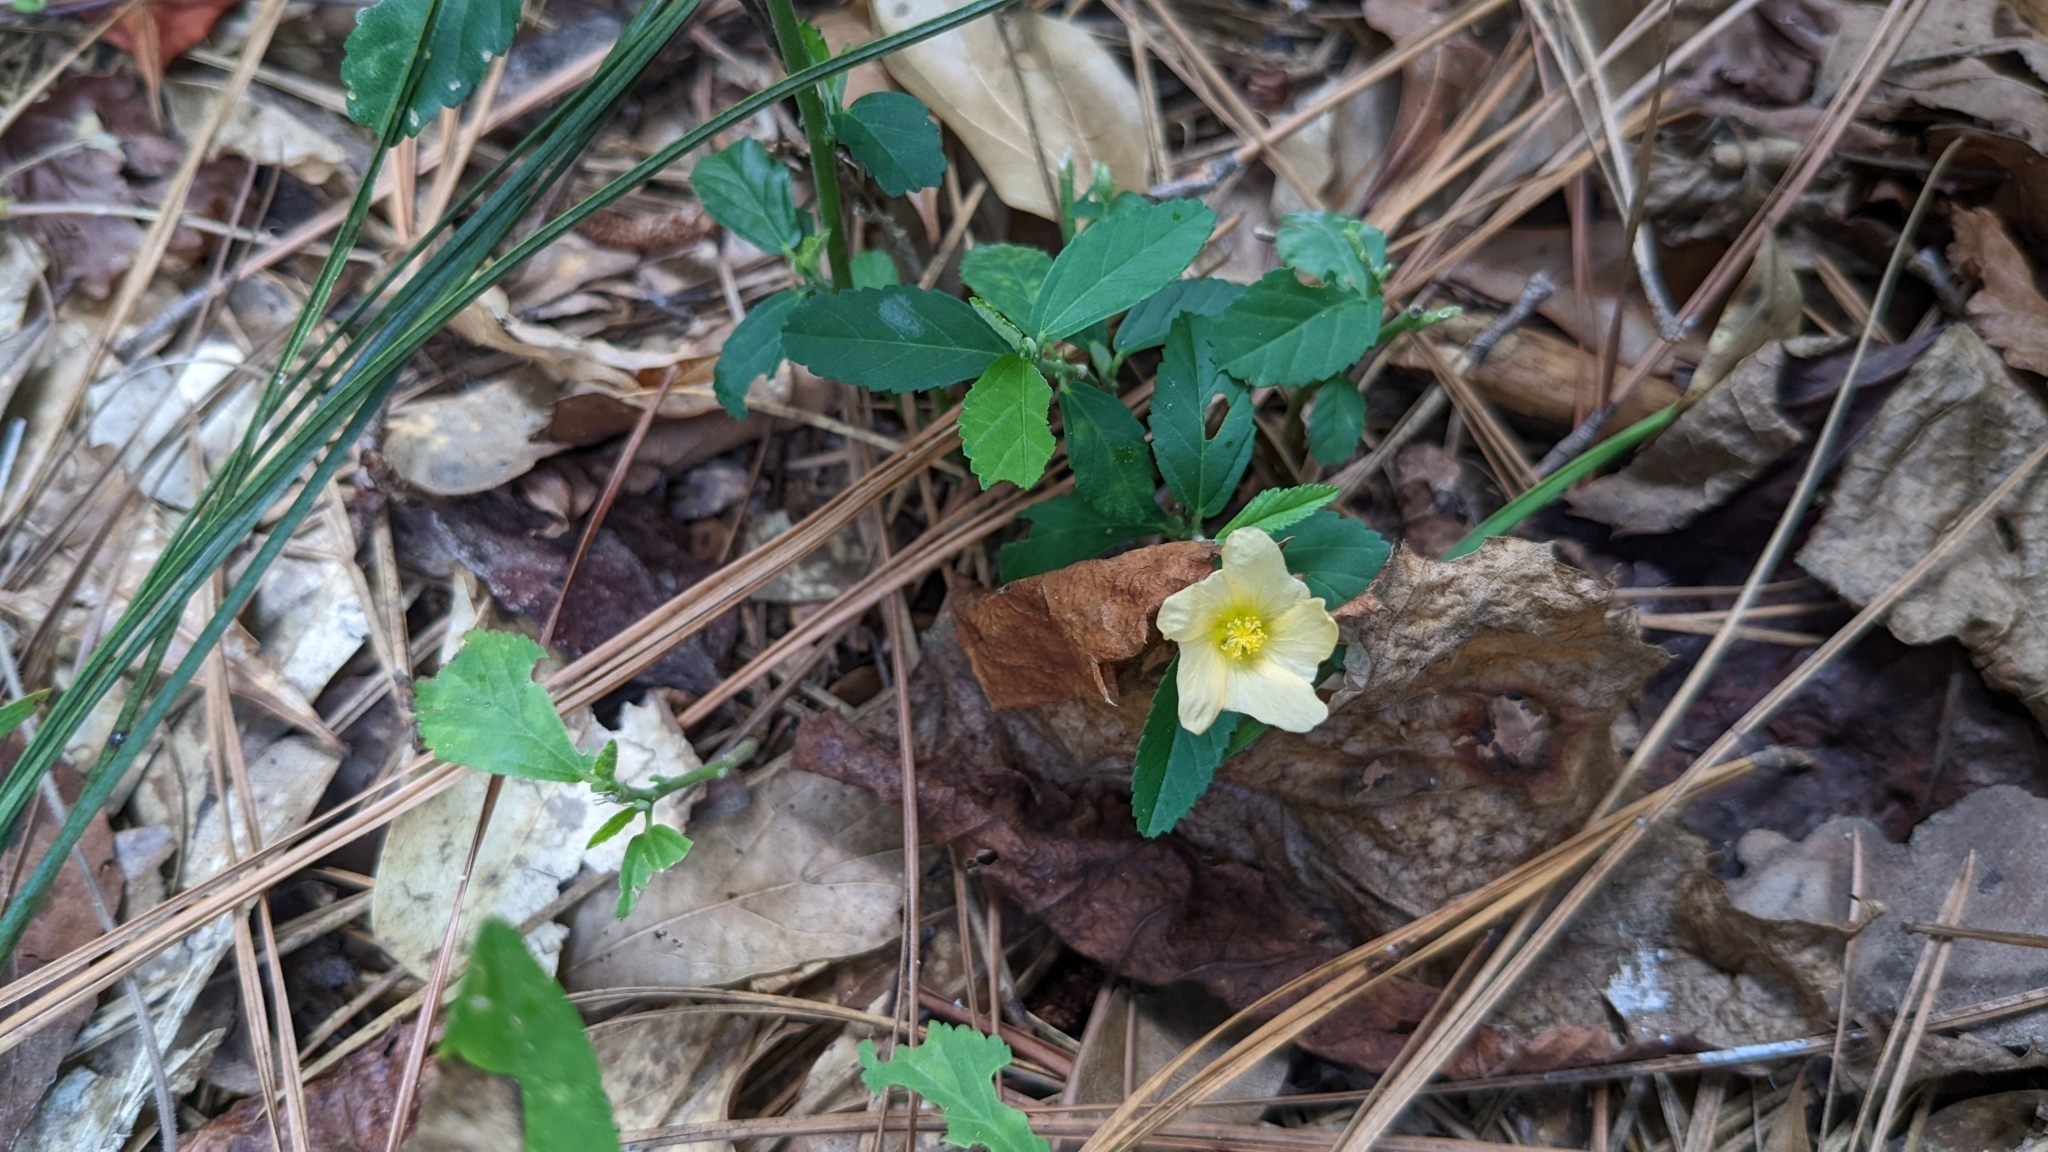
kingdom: Plantae
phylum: Tracheophyta
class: Magnoliopsida
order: Malvales
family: Malvaceae
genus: Sida
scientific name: Sida rhombifolia
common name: Queensland-hemp
